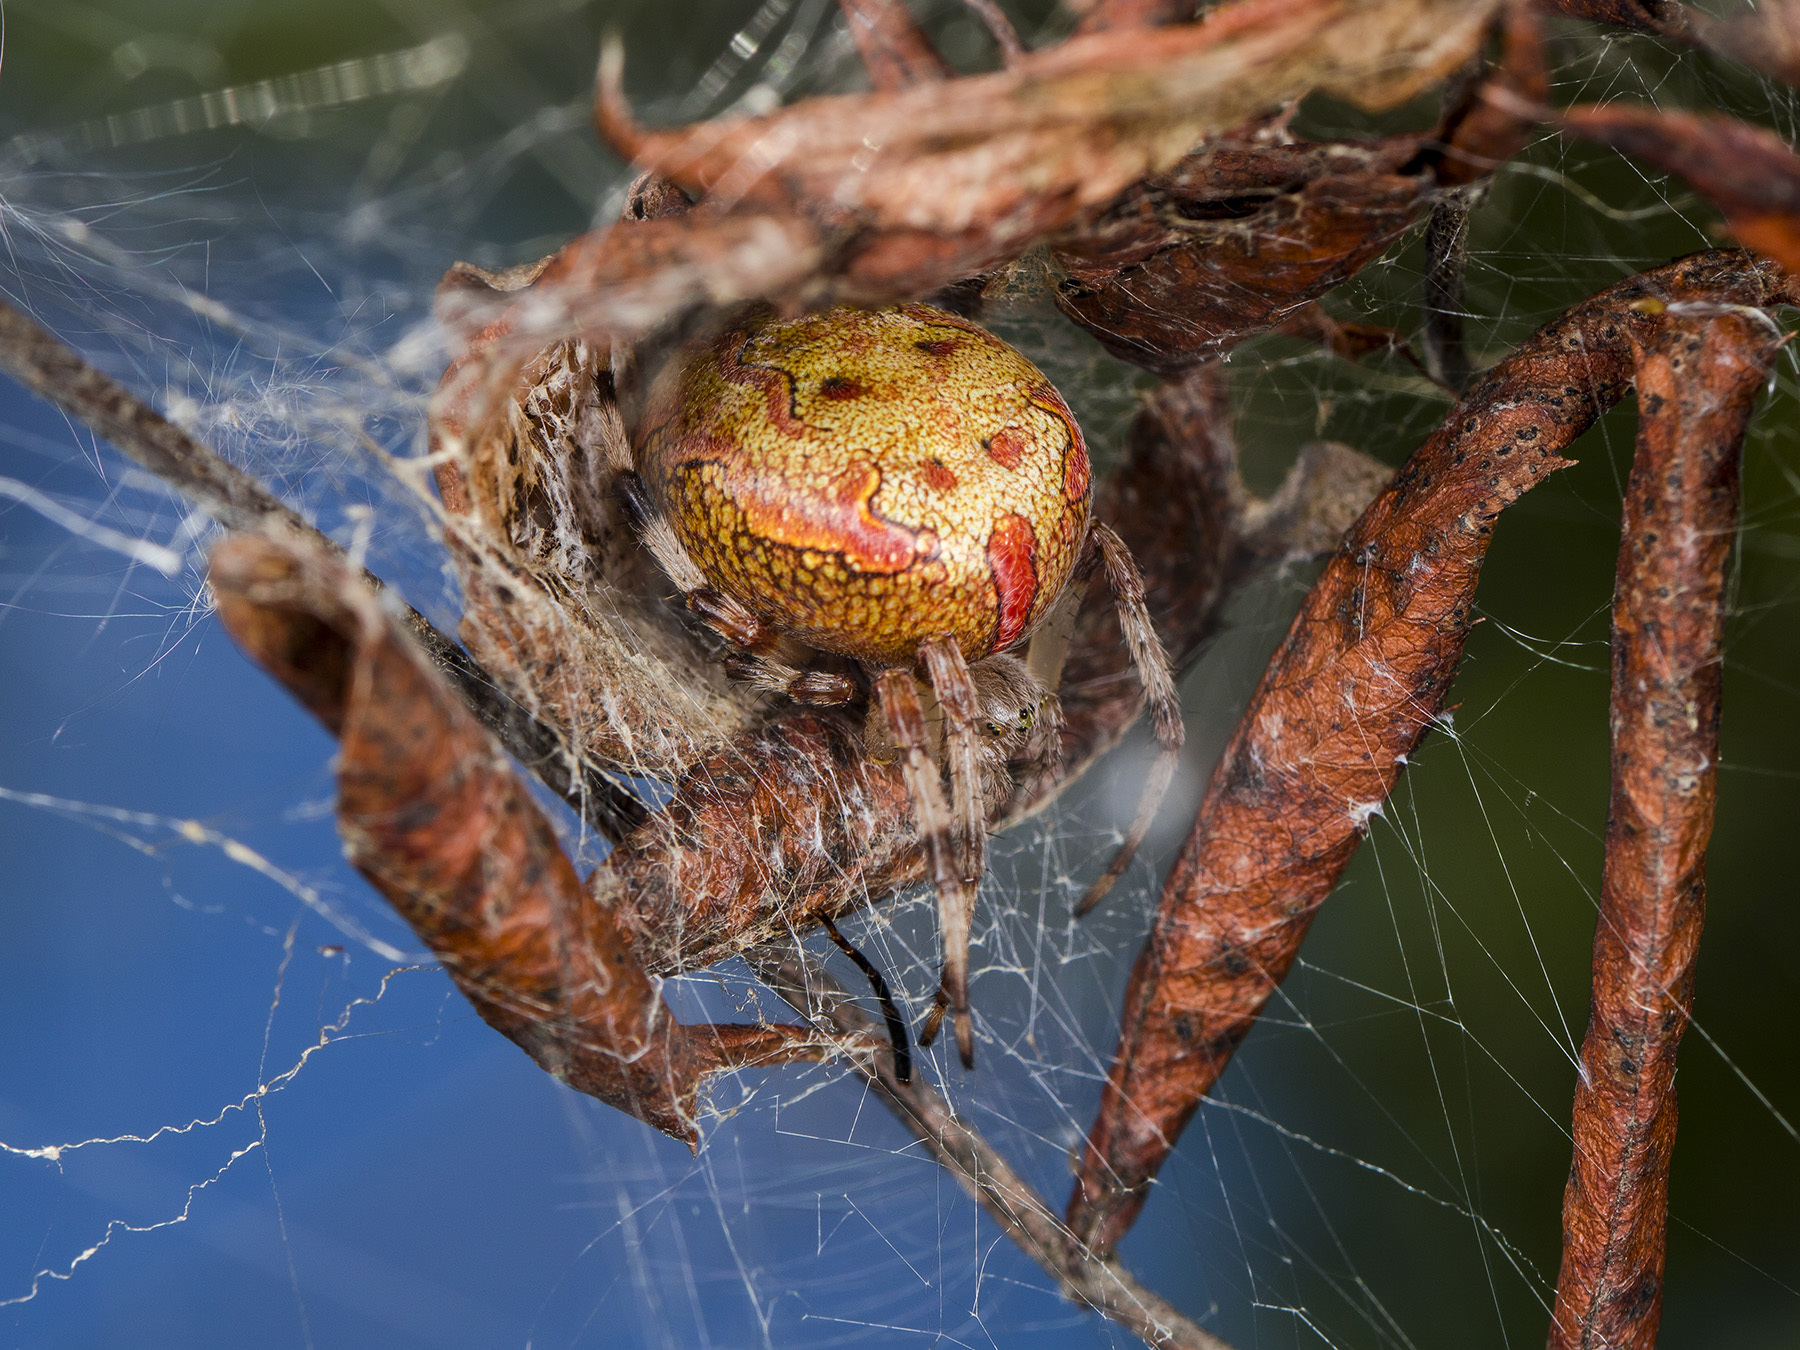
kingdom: Animalia
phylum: Arthropoda
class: Arachnida
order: Araneae
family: Araneidae
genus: Araneus
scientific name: Araneus marmoreus
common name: Marbled orbweaver
